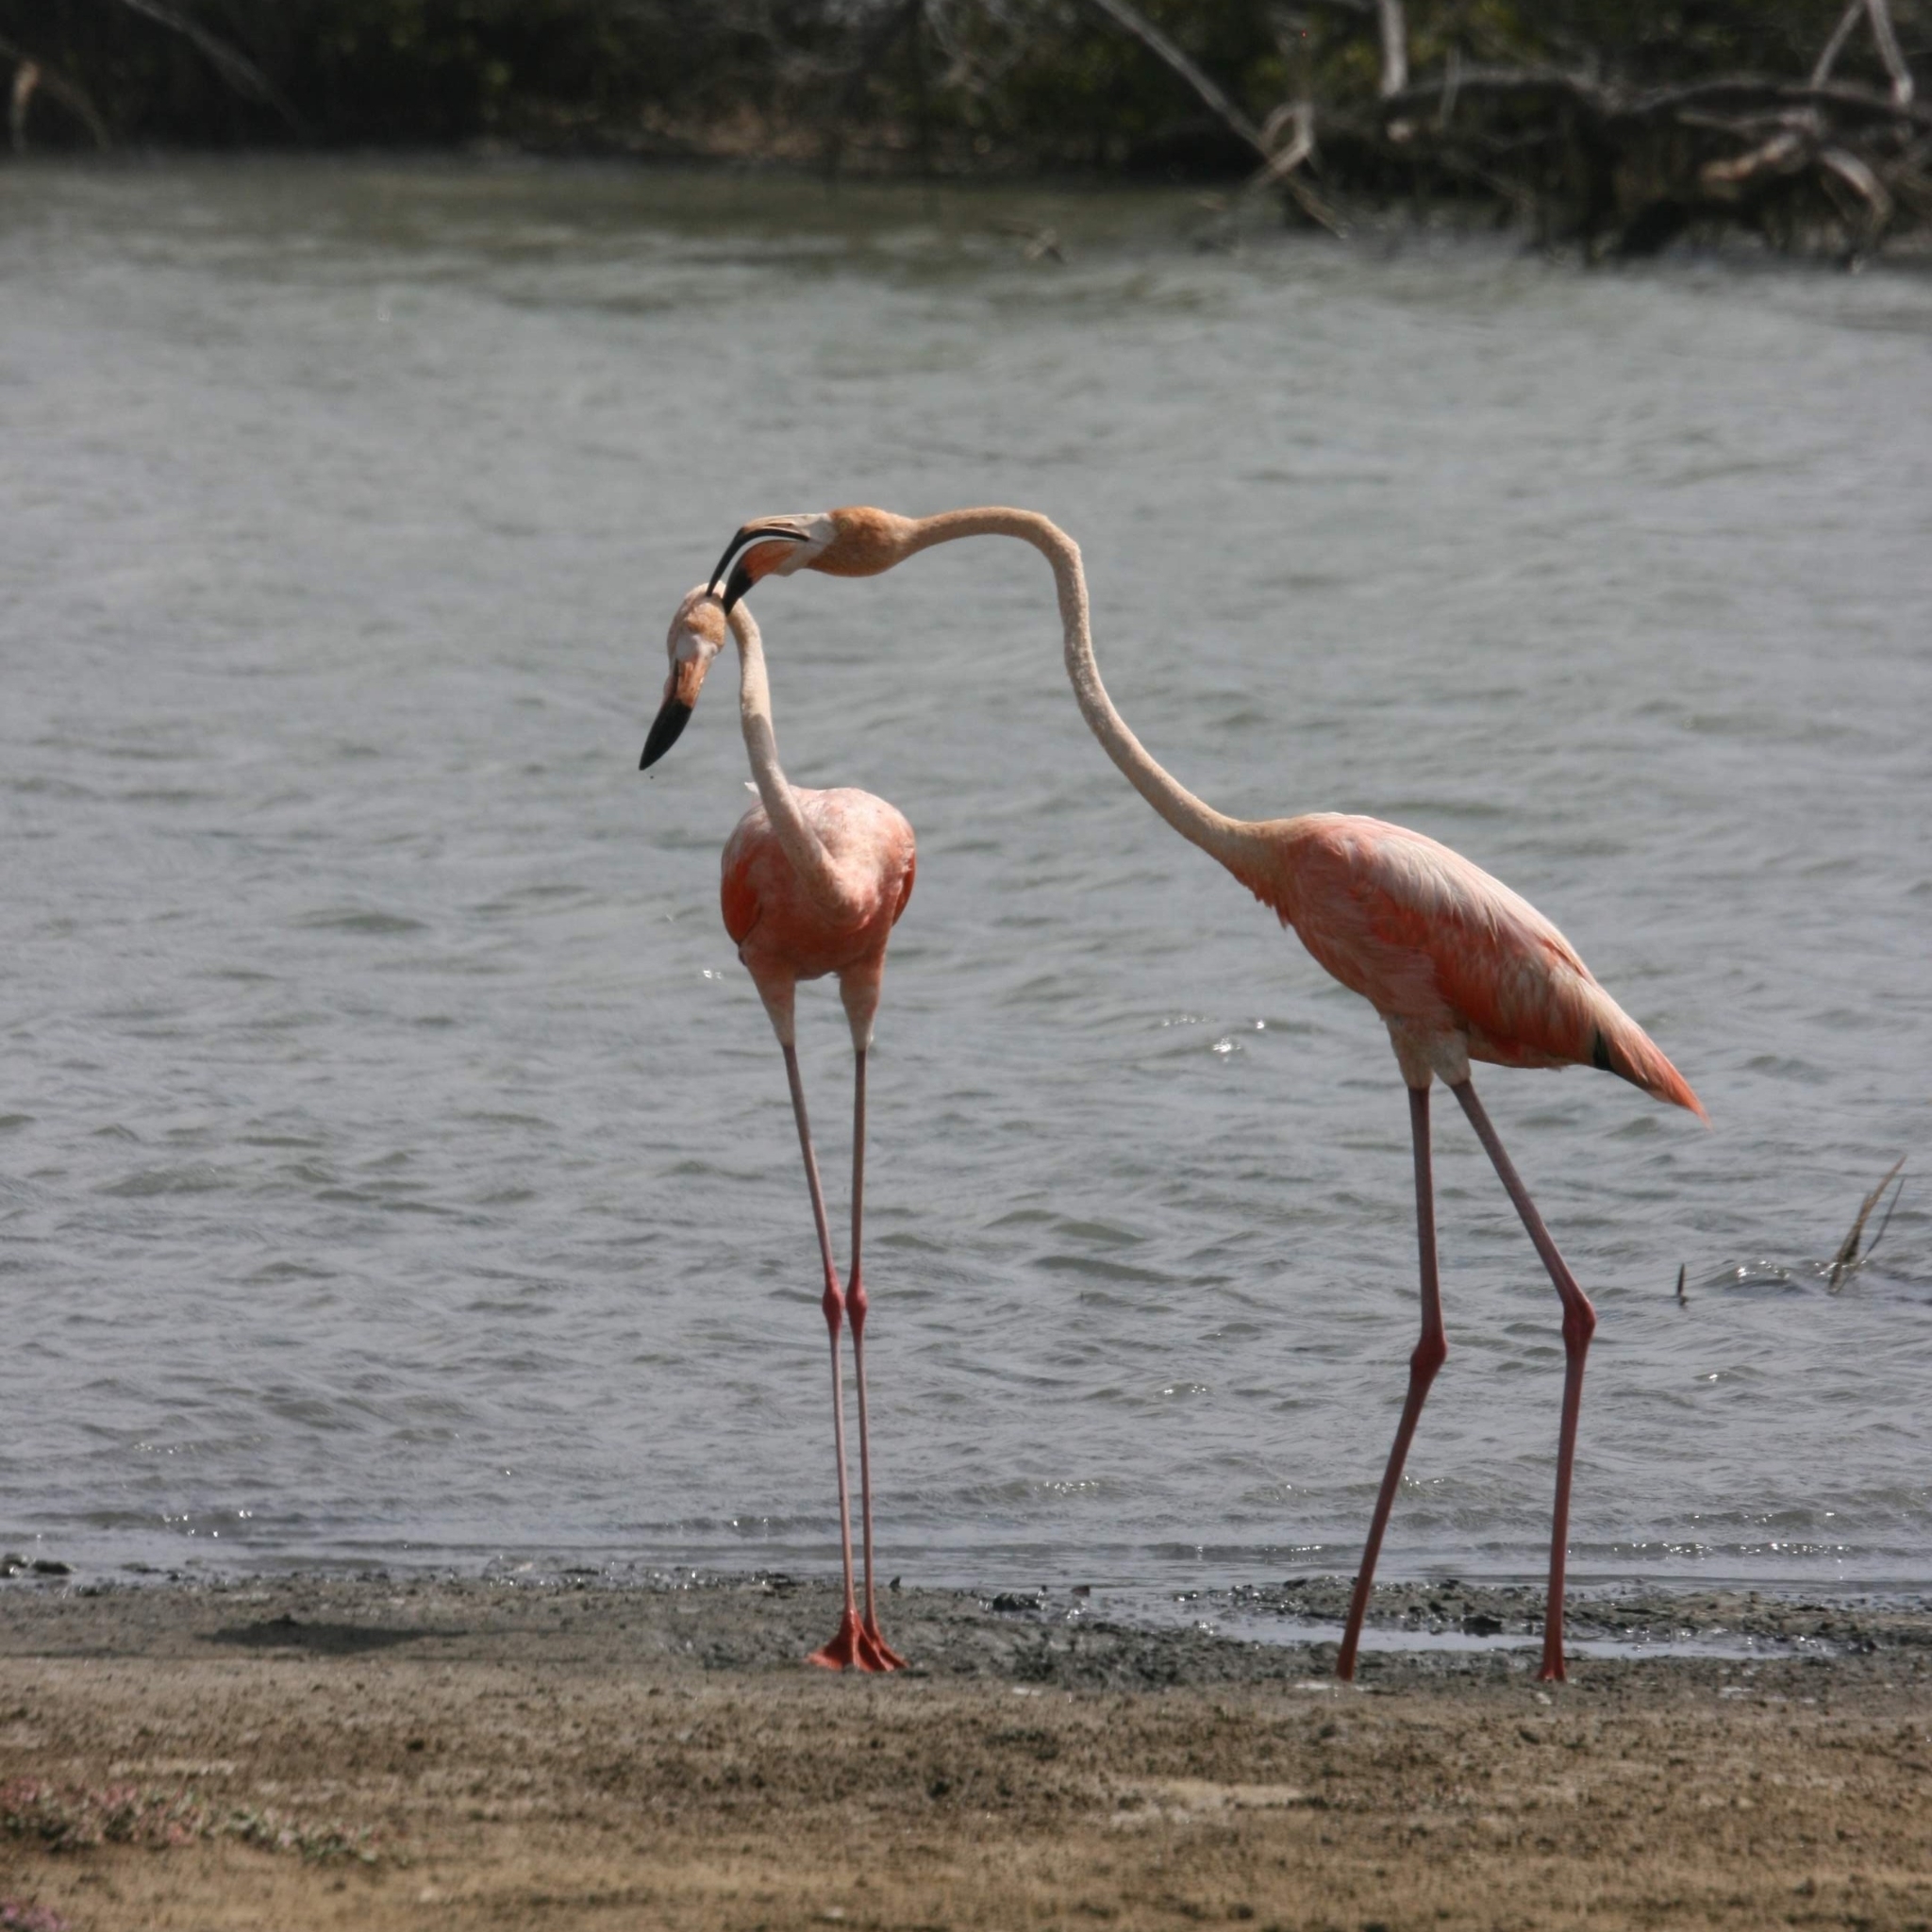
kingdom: Animalia
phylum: Chordata
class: Aves
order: Phoenicopteriformes
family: Phoenicopteridae
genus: Phoenicopterus
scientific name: Phoenicopterus ruber
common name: American flamingo
